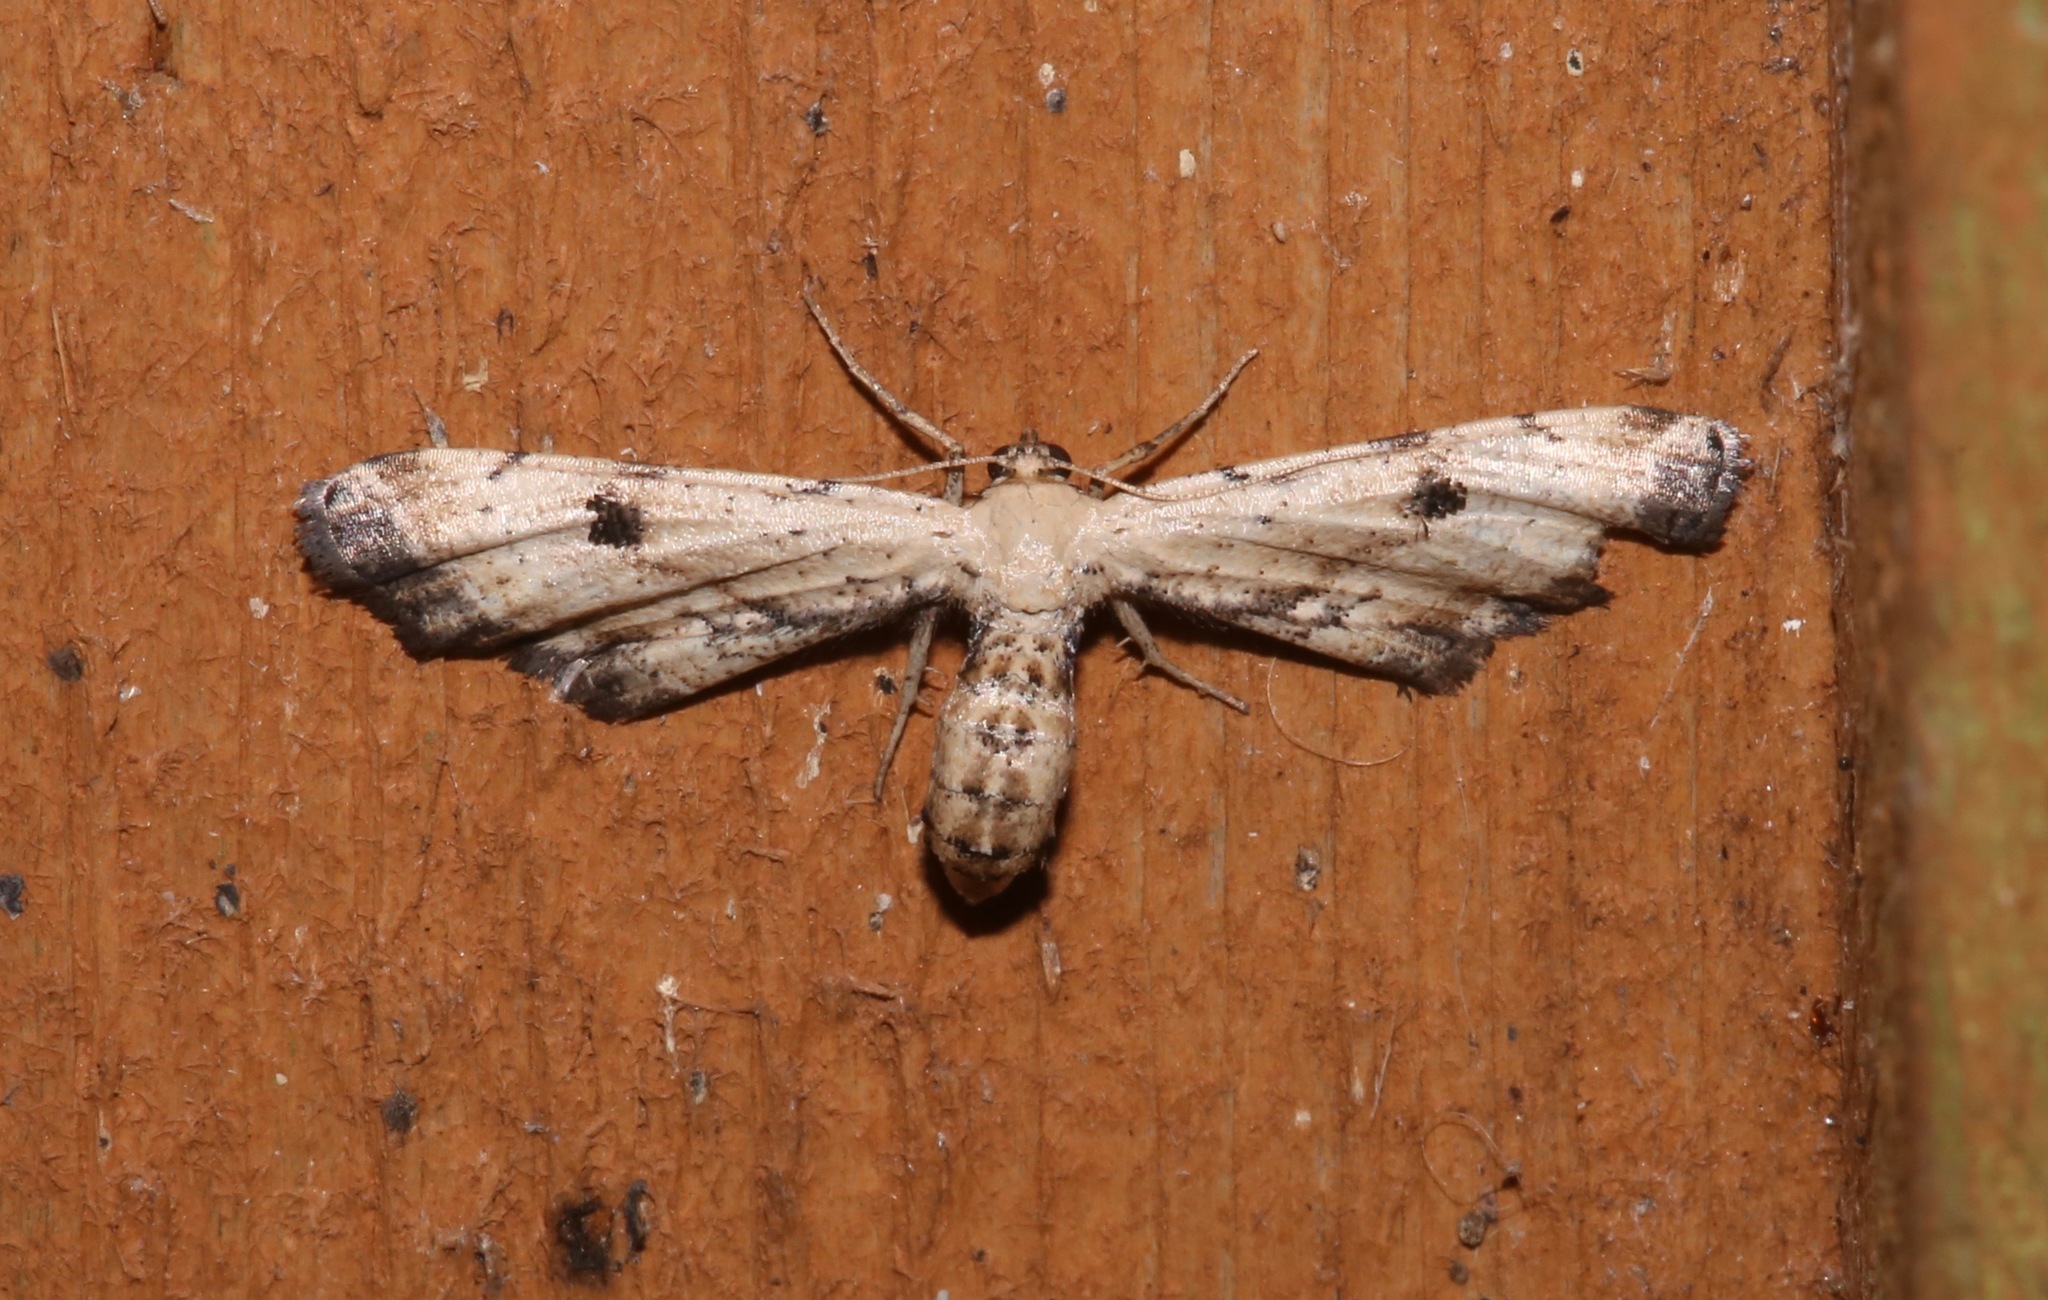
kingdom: Animalia
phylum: Arthropoda
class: Insecta
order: Lepidoptera
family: Geometridae
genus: Tornos
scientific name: Tornos scolopacinaria
